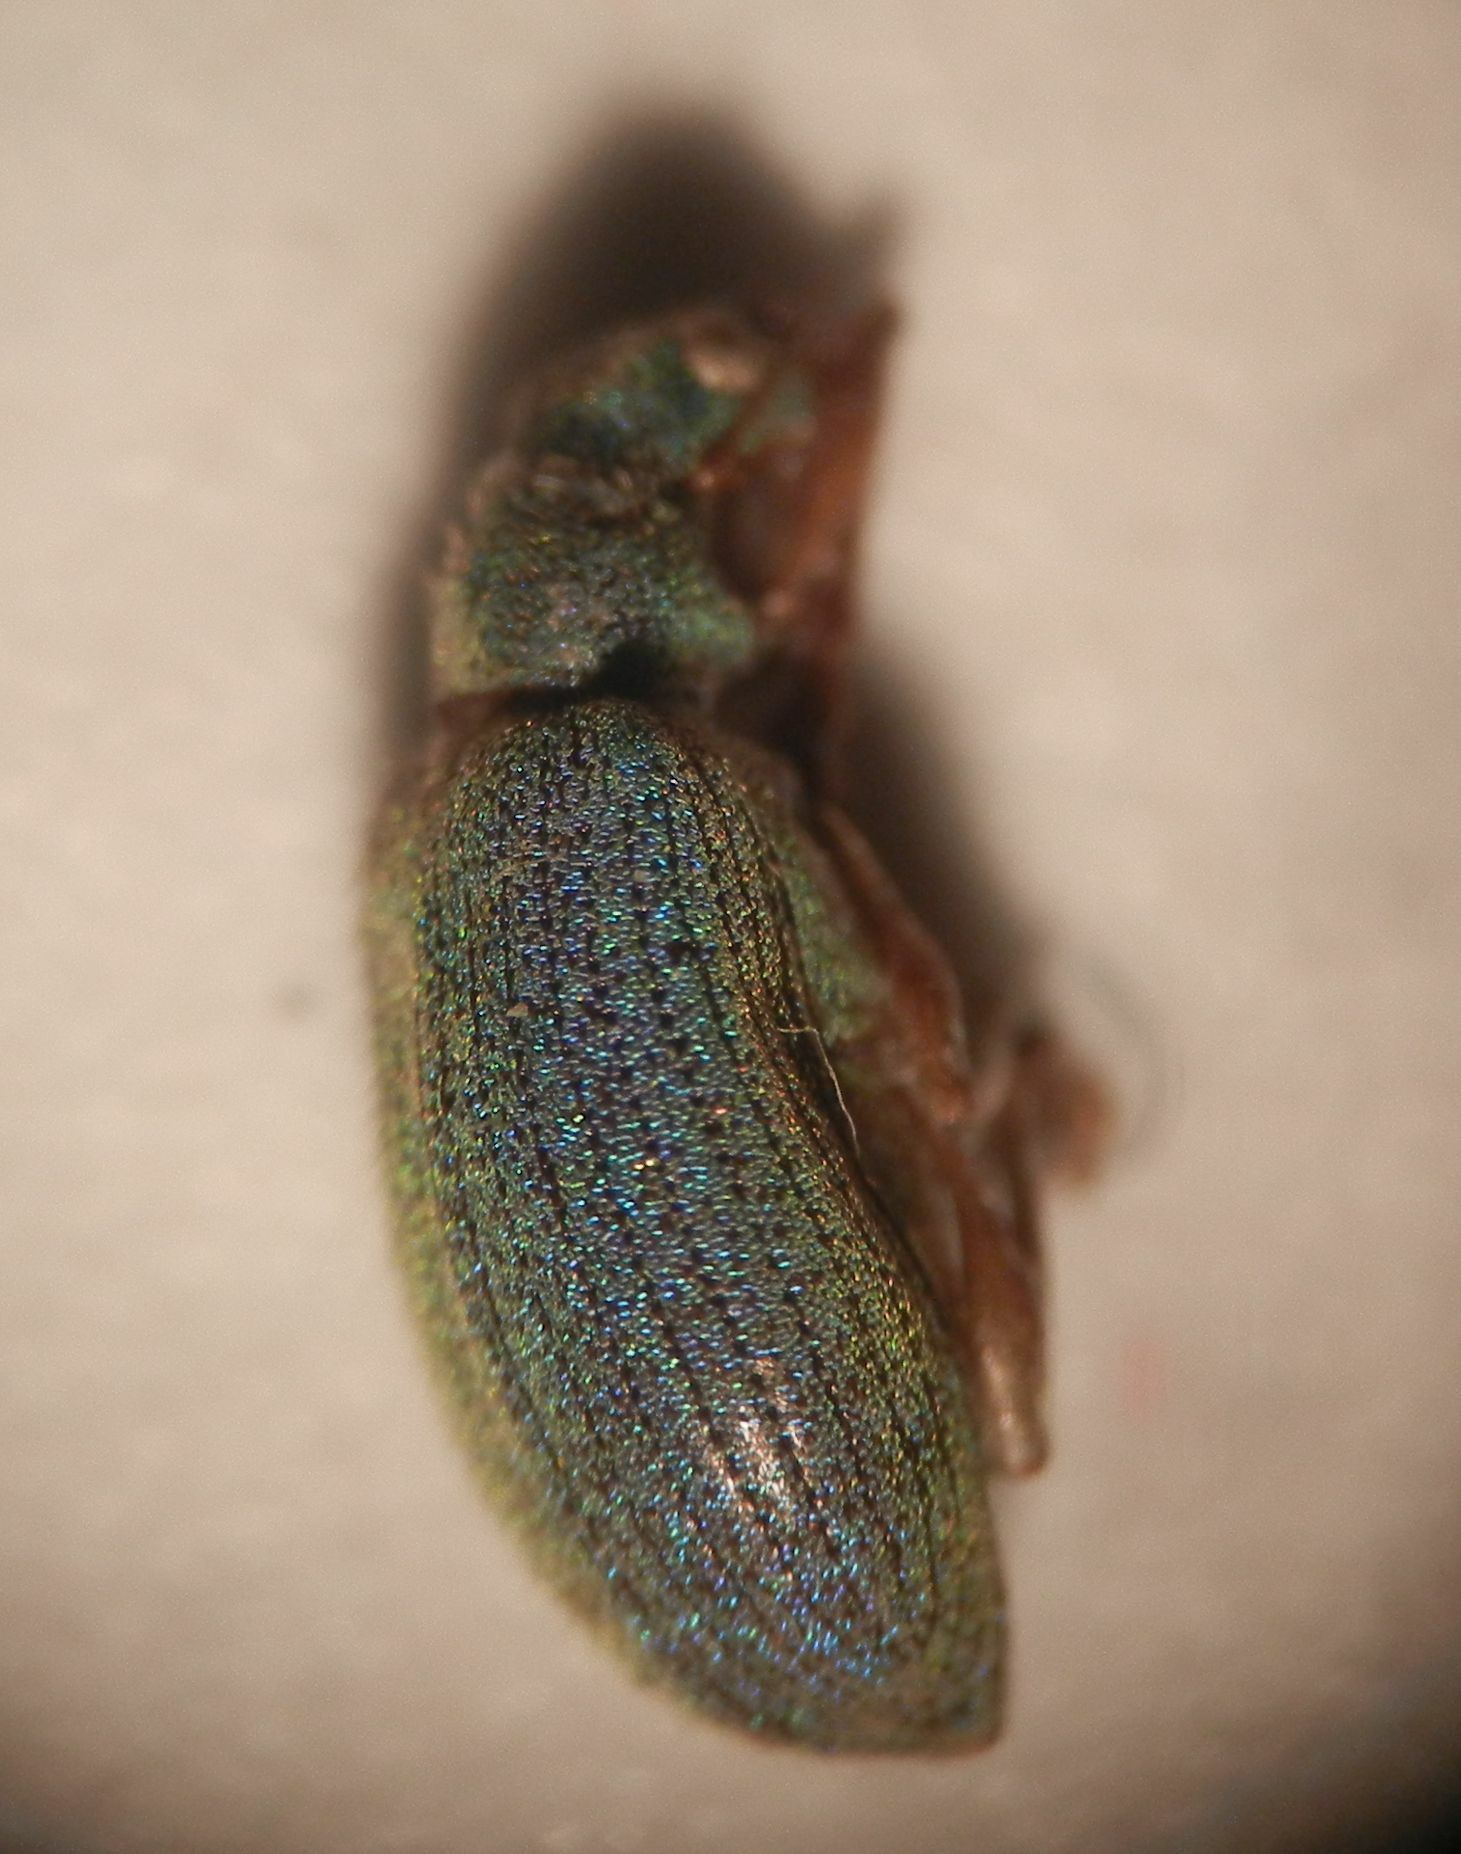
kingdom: Animalia
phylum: Arthropoda
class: Insecta
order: Coleoptera
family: Curculionidae
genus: Polydrusus
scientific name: Polydrusus pterygomalis
